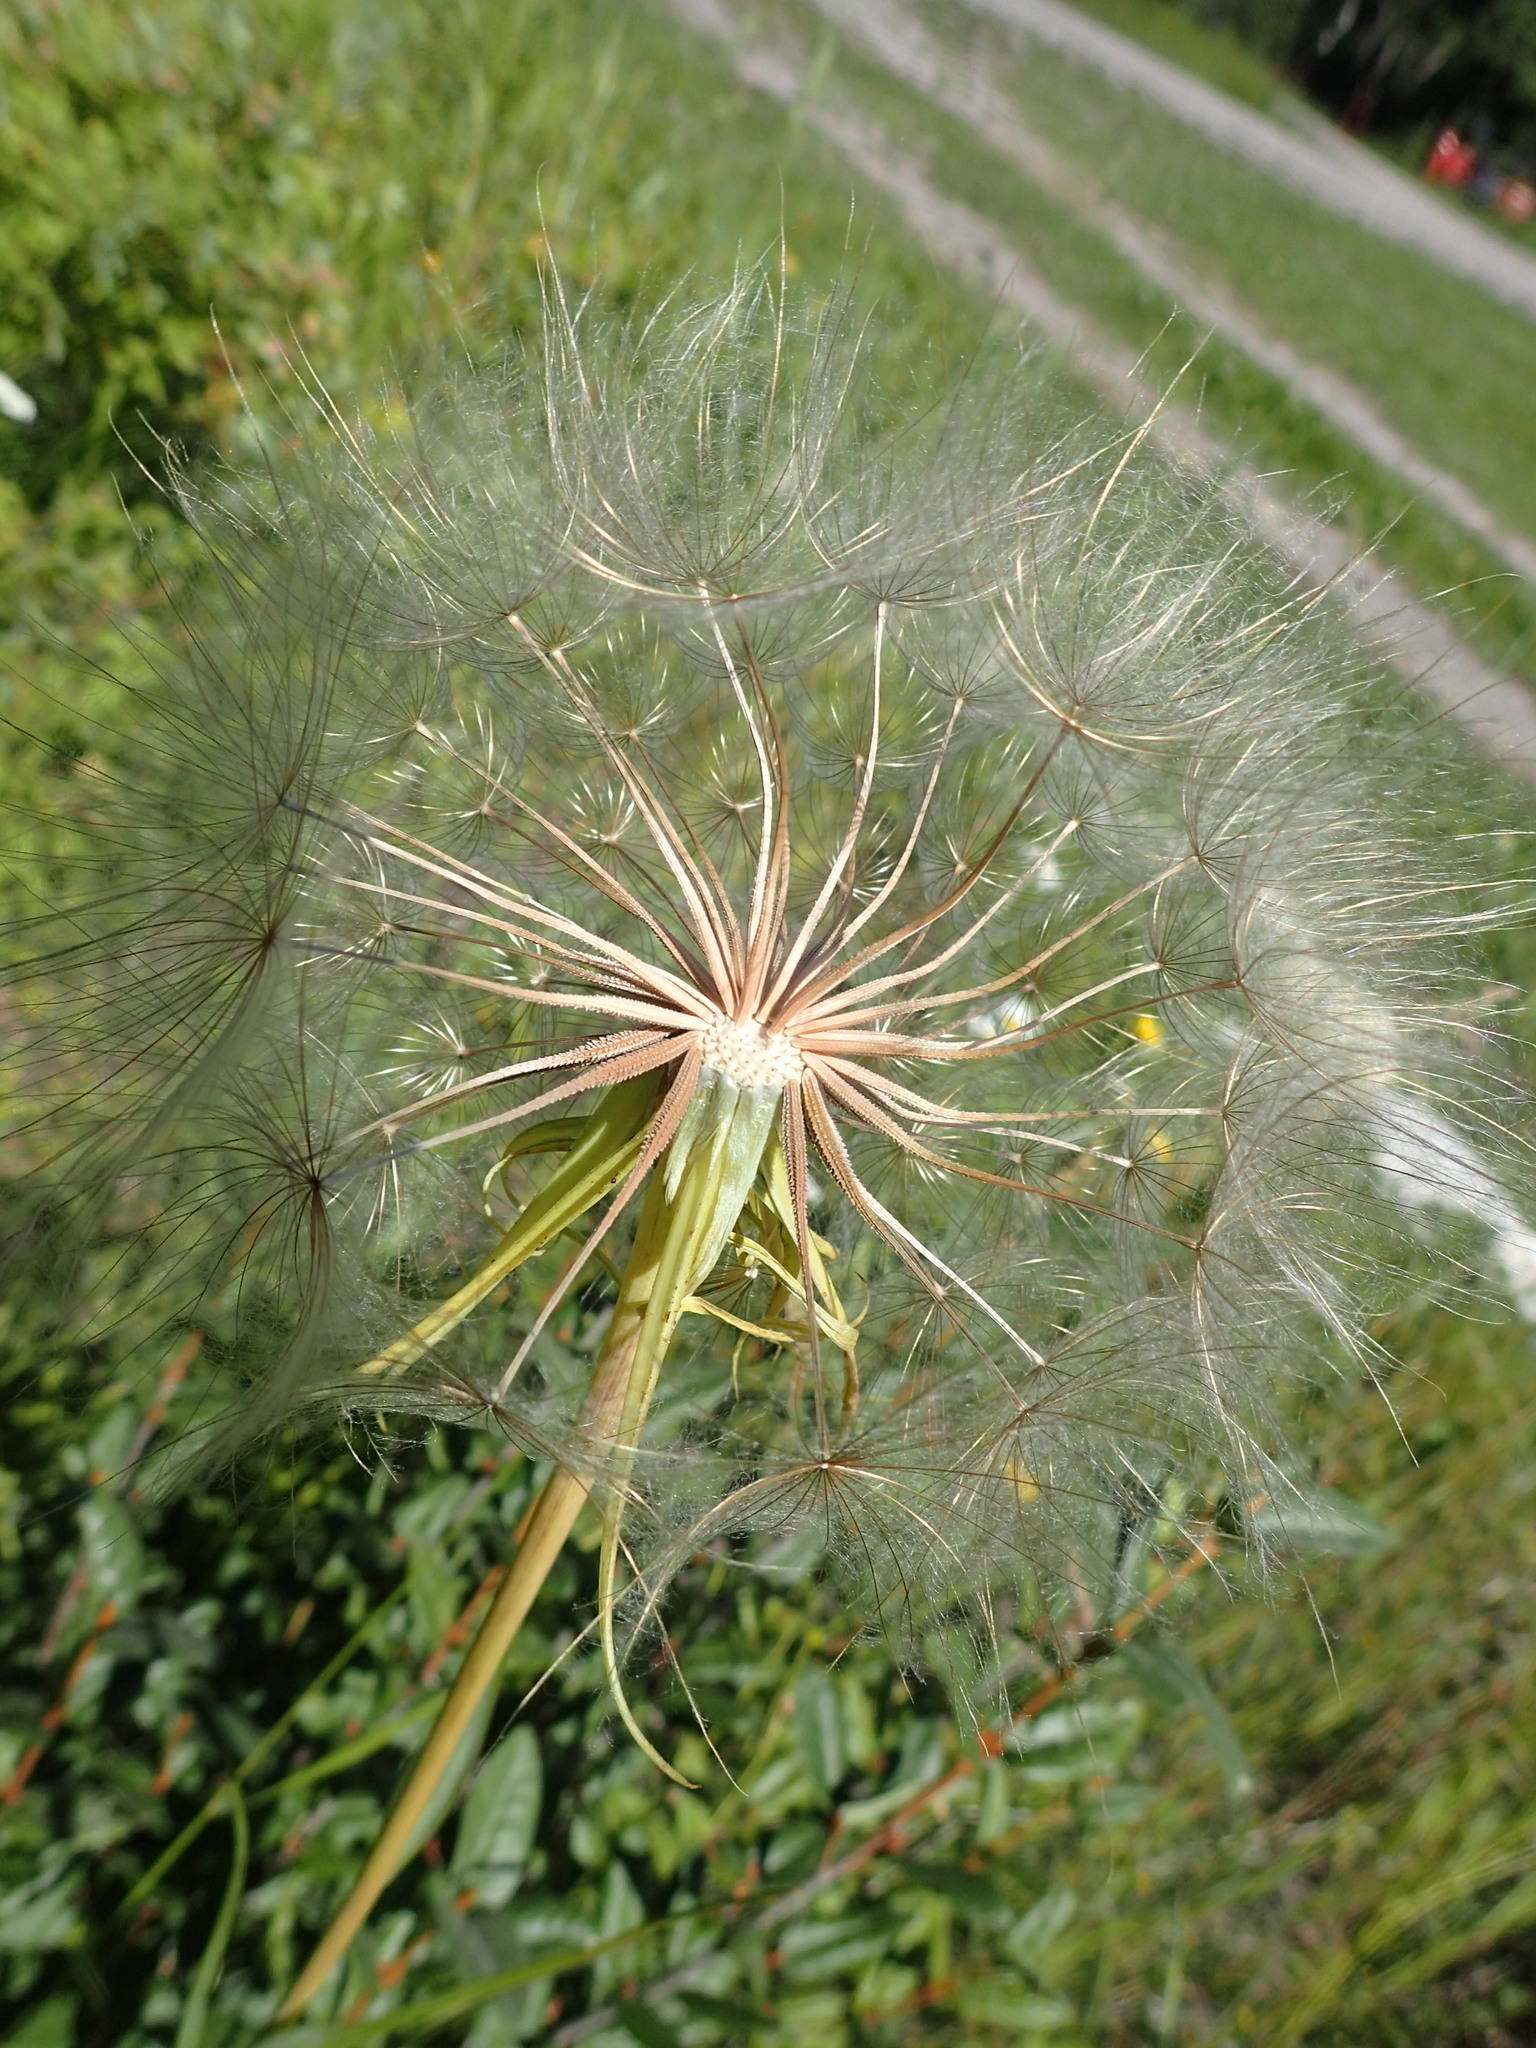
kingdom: Plantae
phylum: Tracheophyta
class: Magnoliopsida
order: Asterales
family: Asteraceae
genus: Tragopogon
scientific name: Tragopogon dubius
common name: Yellow salsify
